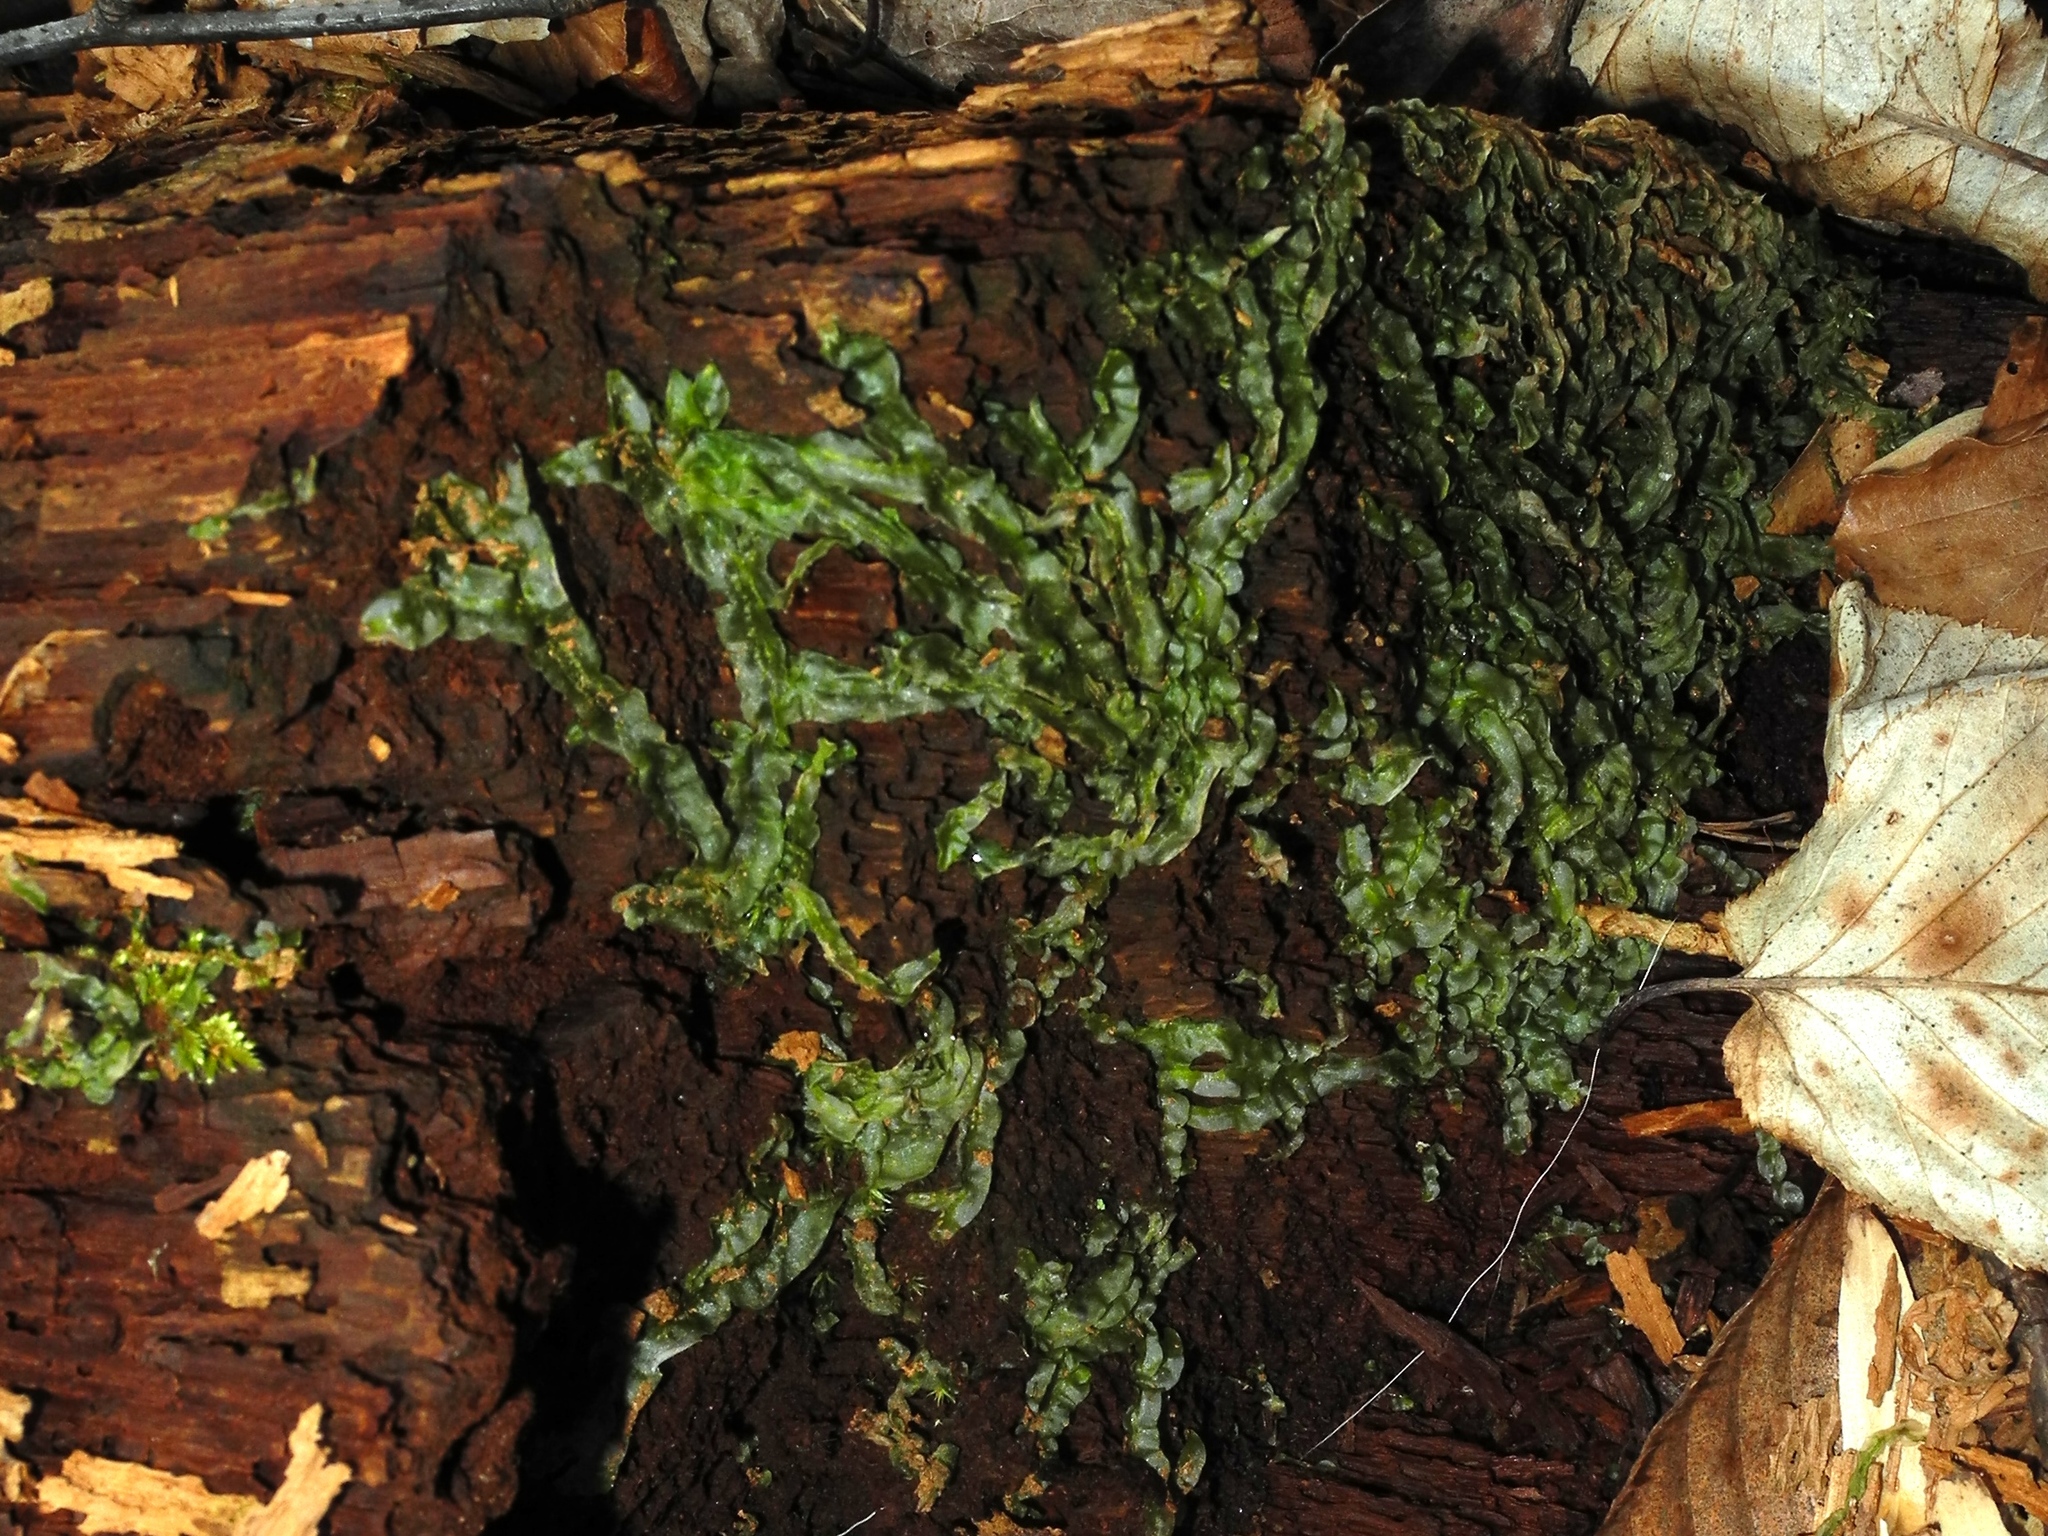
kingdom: Plantae
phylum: Marchantiophyta
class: Jungermanniopsida
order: Metzgeriales
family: Metzgeriaceae
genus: Metzgeria
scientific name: Metzgeria furcata
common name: Forked veilwort
